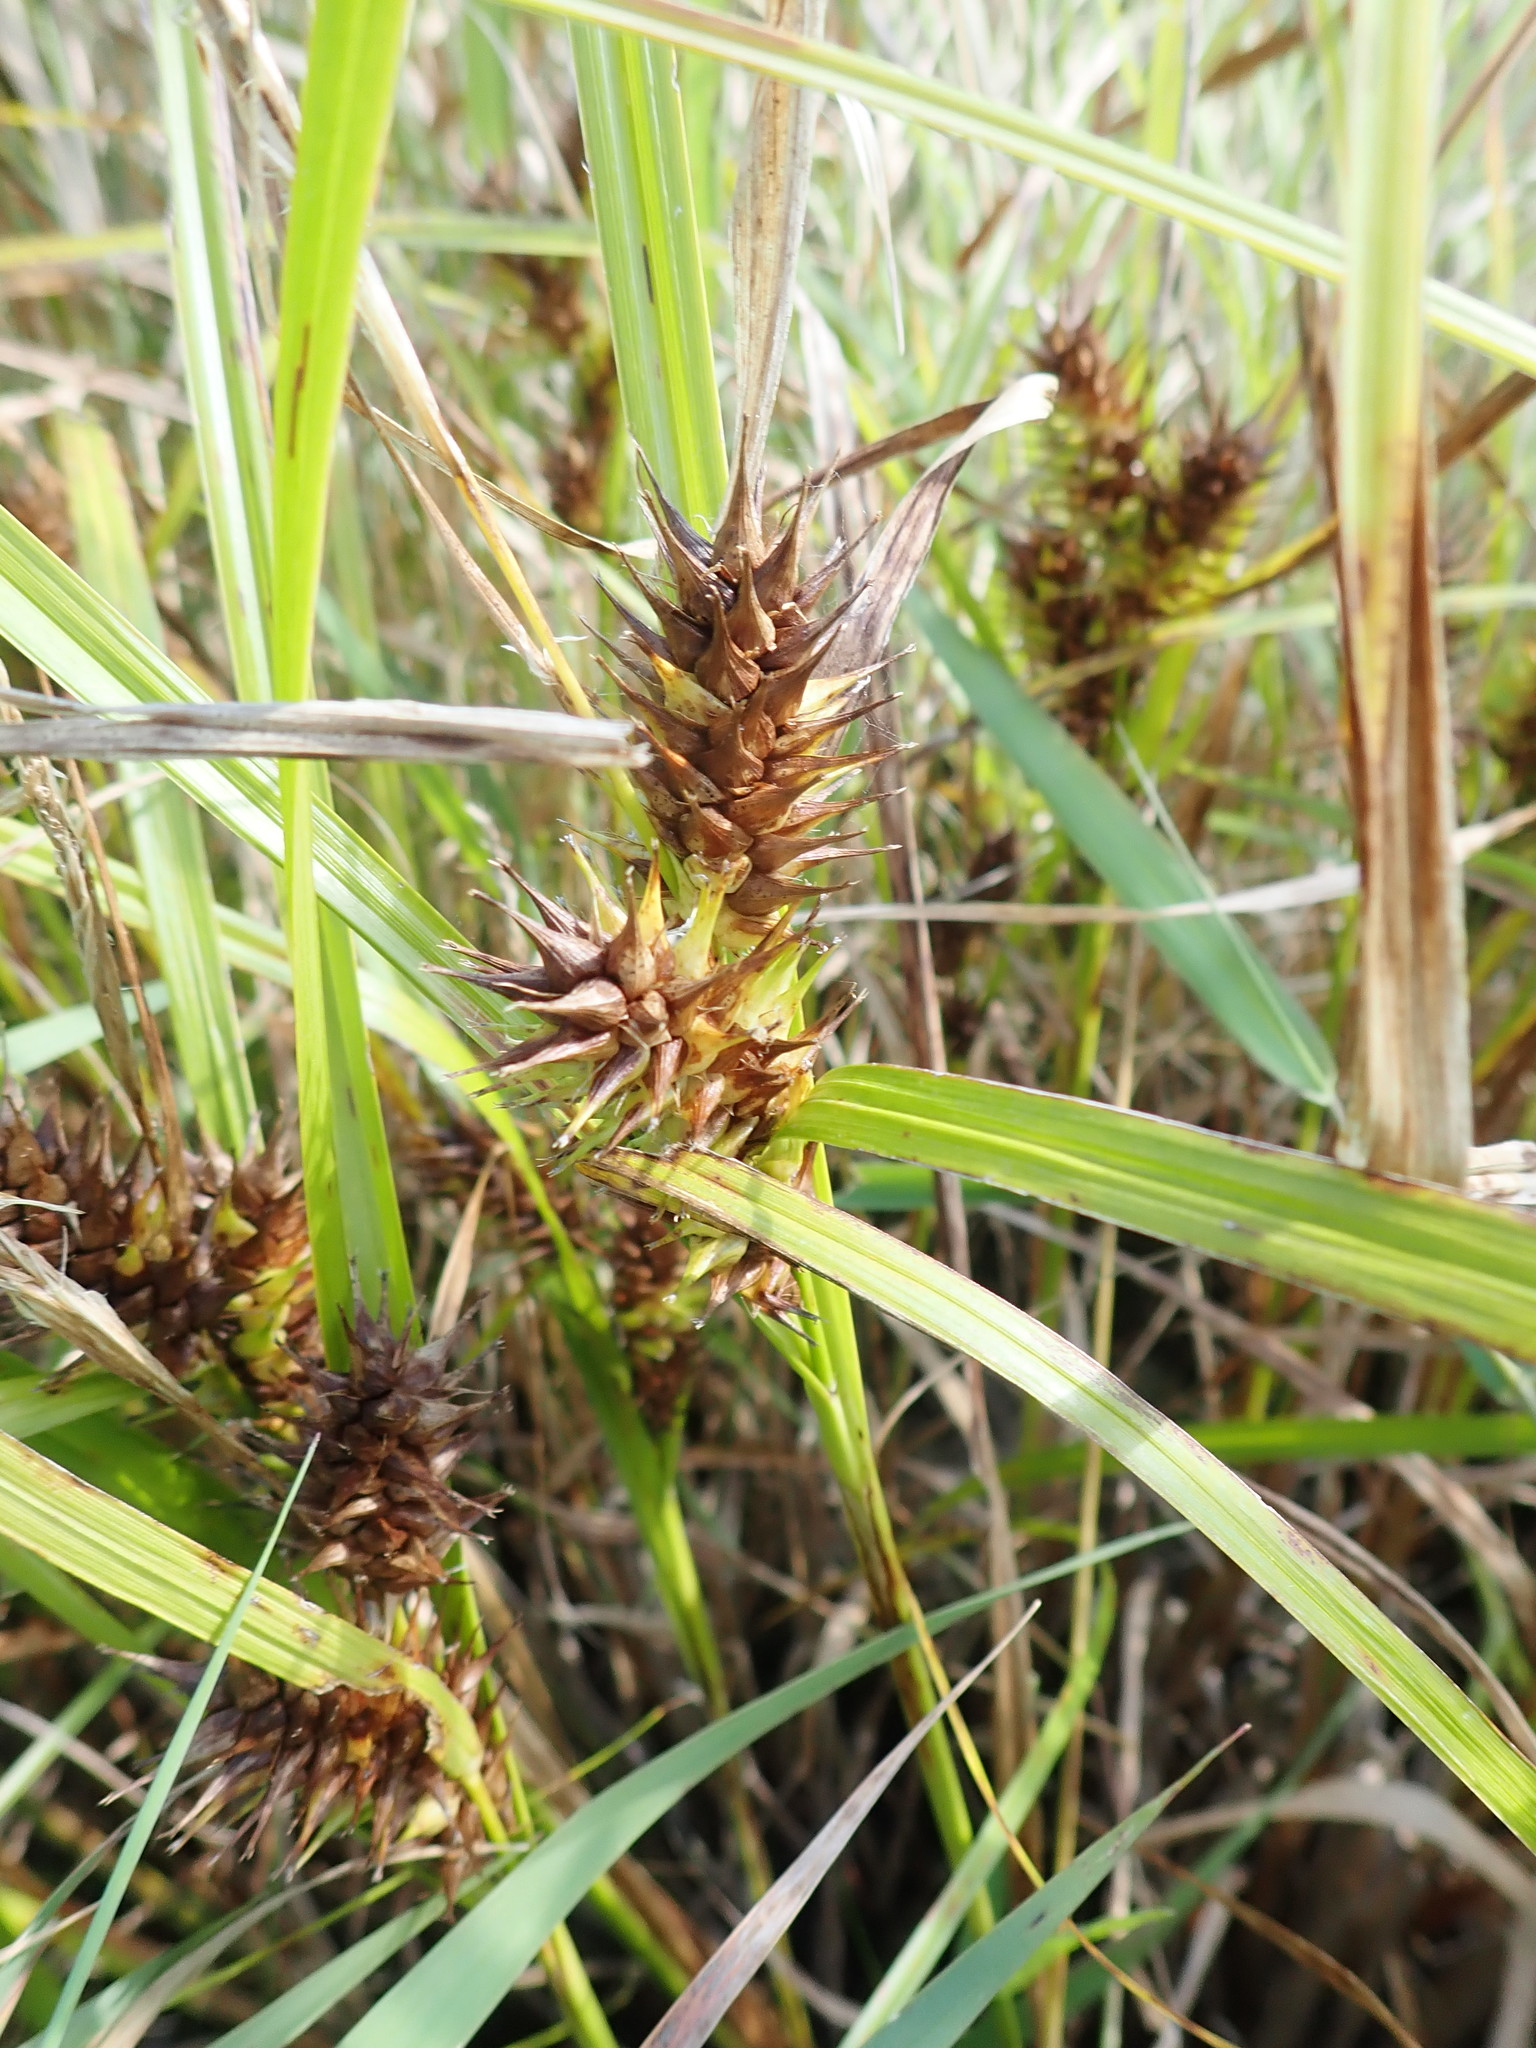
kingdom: Plantae
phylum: Tracheophyta
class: Liliopsida
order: Poales
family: Cyperaceae
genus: Carex
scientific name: Carex lupulina
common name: Hop sedge
